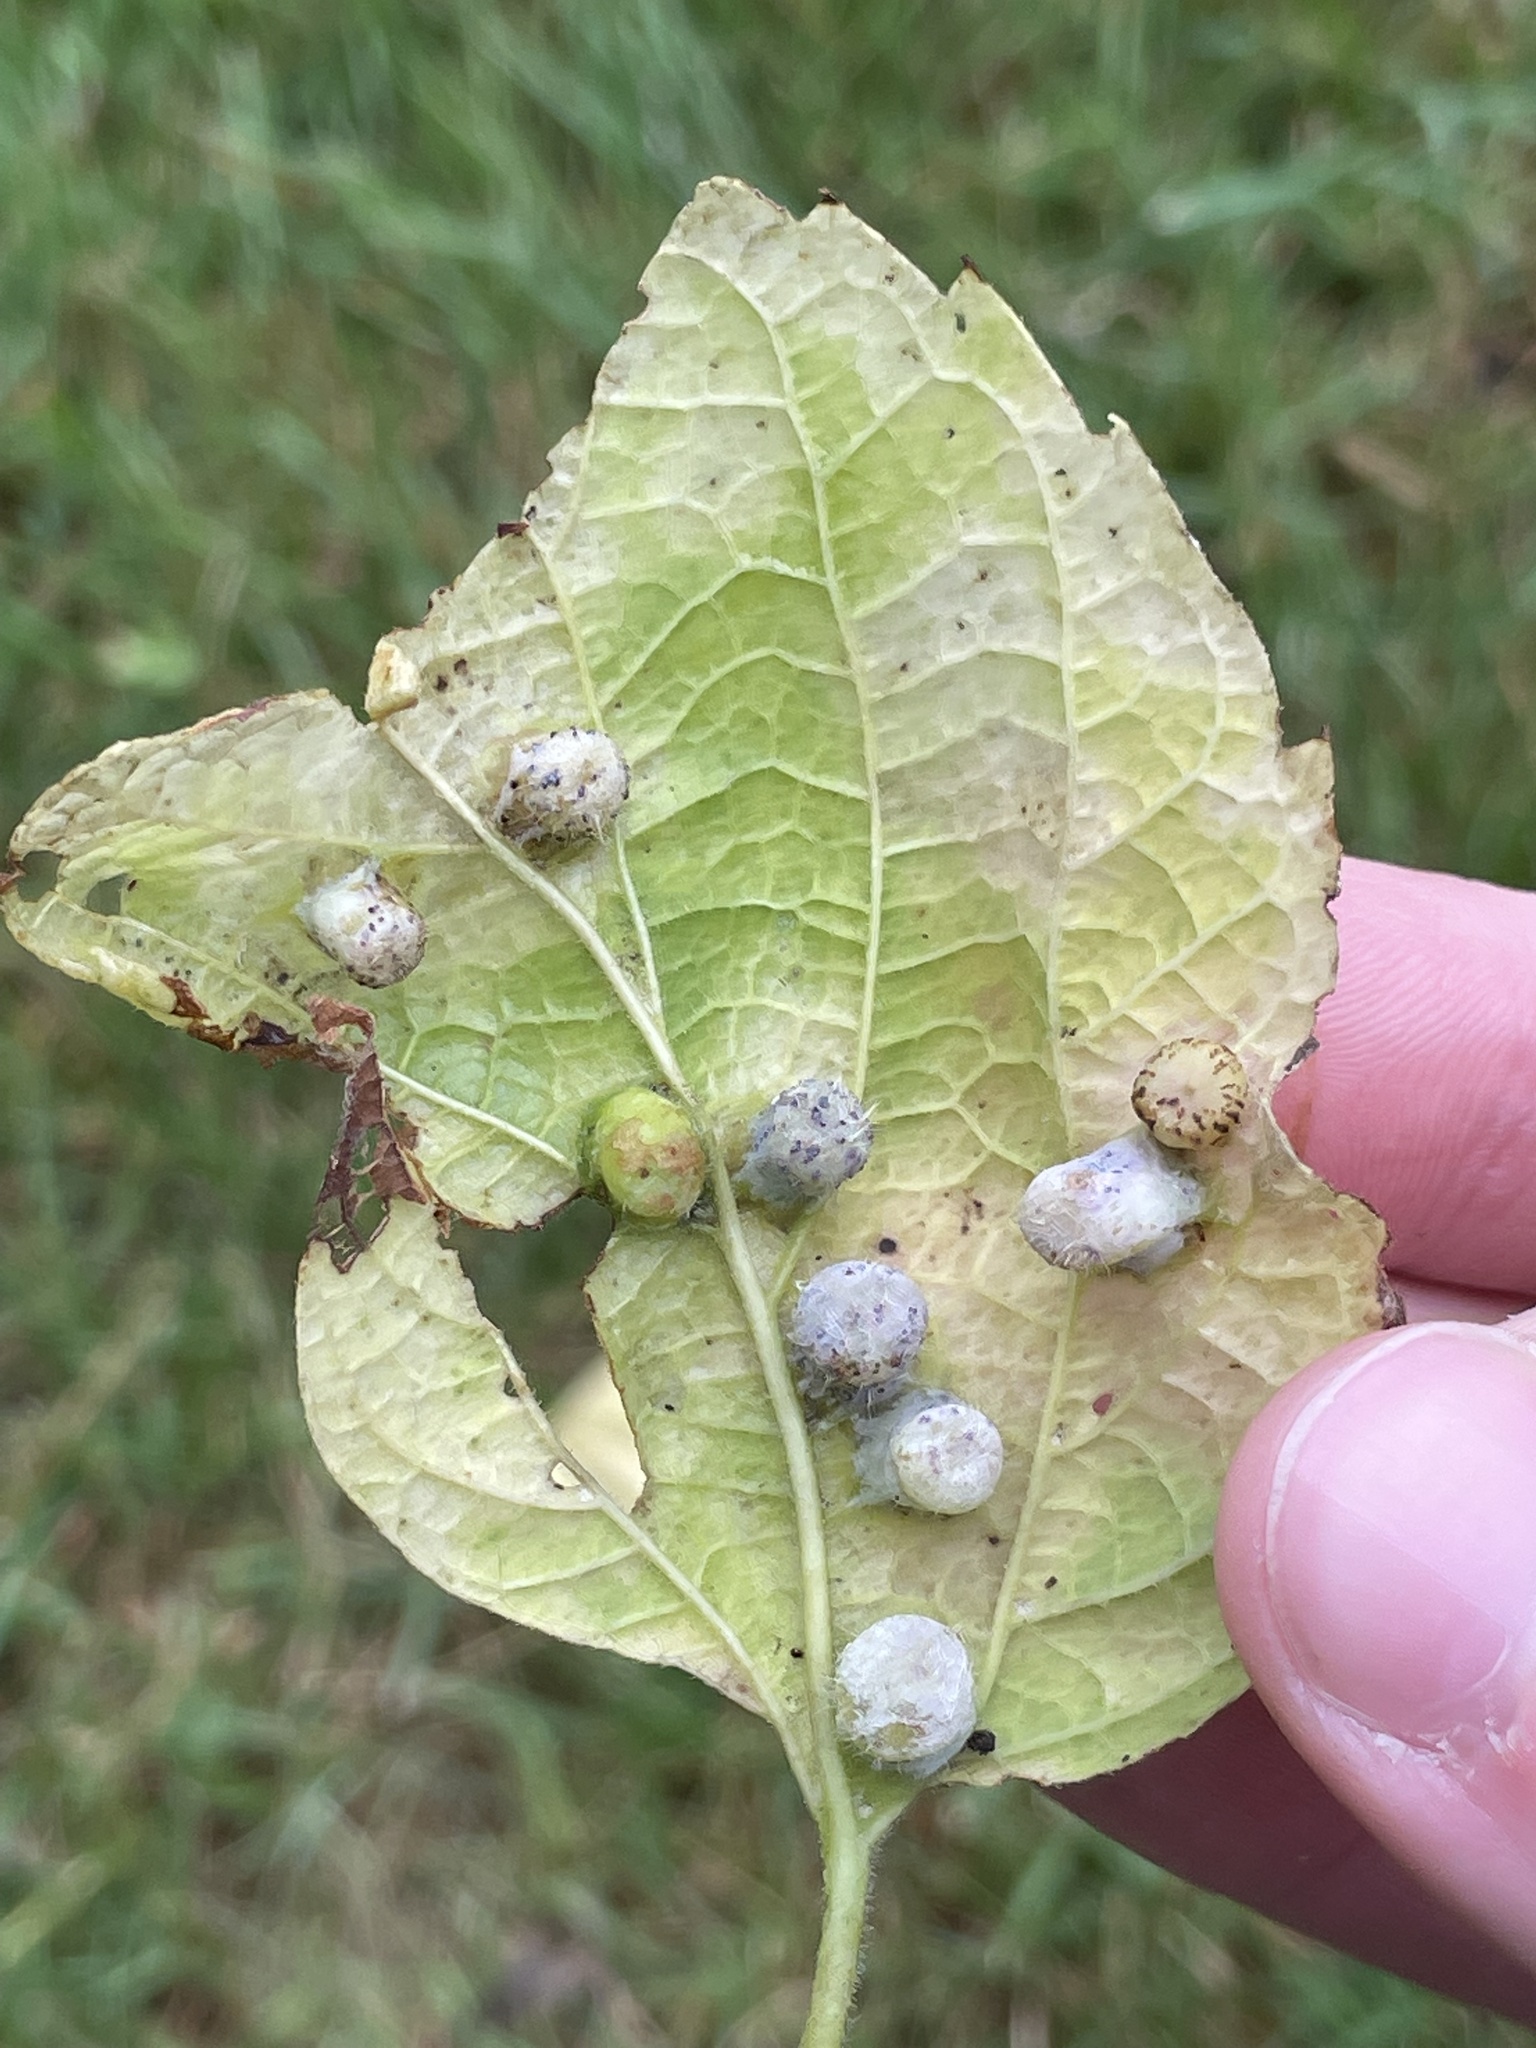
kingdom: Animalia
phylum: Arthropoda
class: Insecta
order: Hemiptera
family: Aphalaridae
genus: Pachypsylla
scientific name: Pachypsylla celtidismamma
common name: Hackberry nipplegall psyllid
